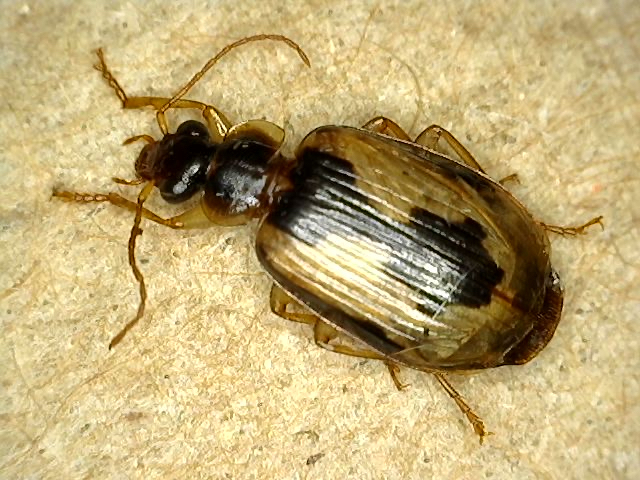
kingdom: Animalia
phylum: Arthropoda
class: Insecta
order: Coleoptera
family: Carabidae
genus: Lebia
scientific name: Lebia fuscata
